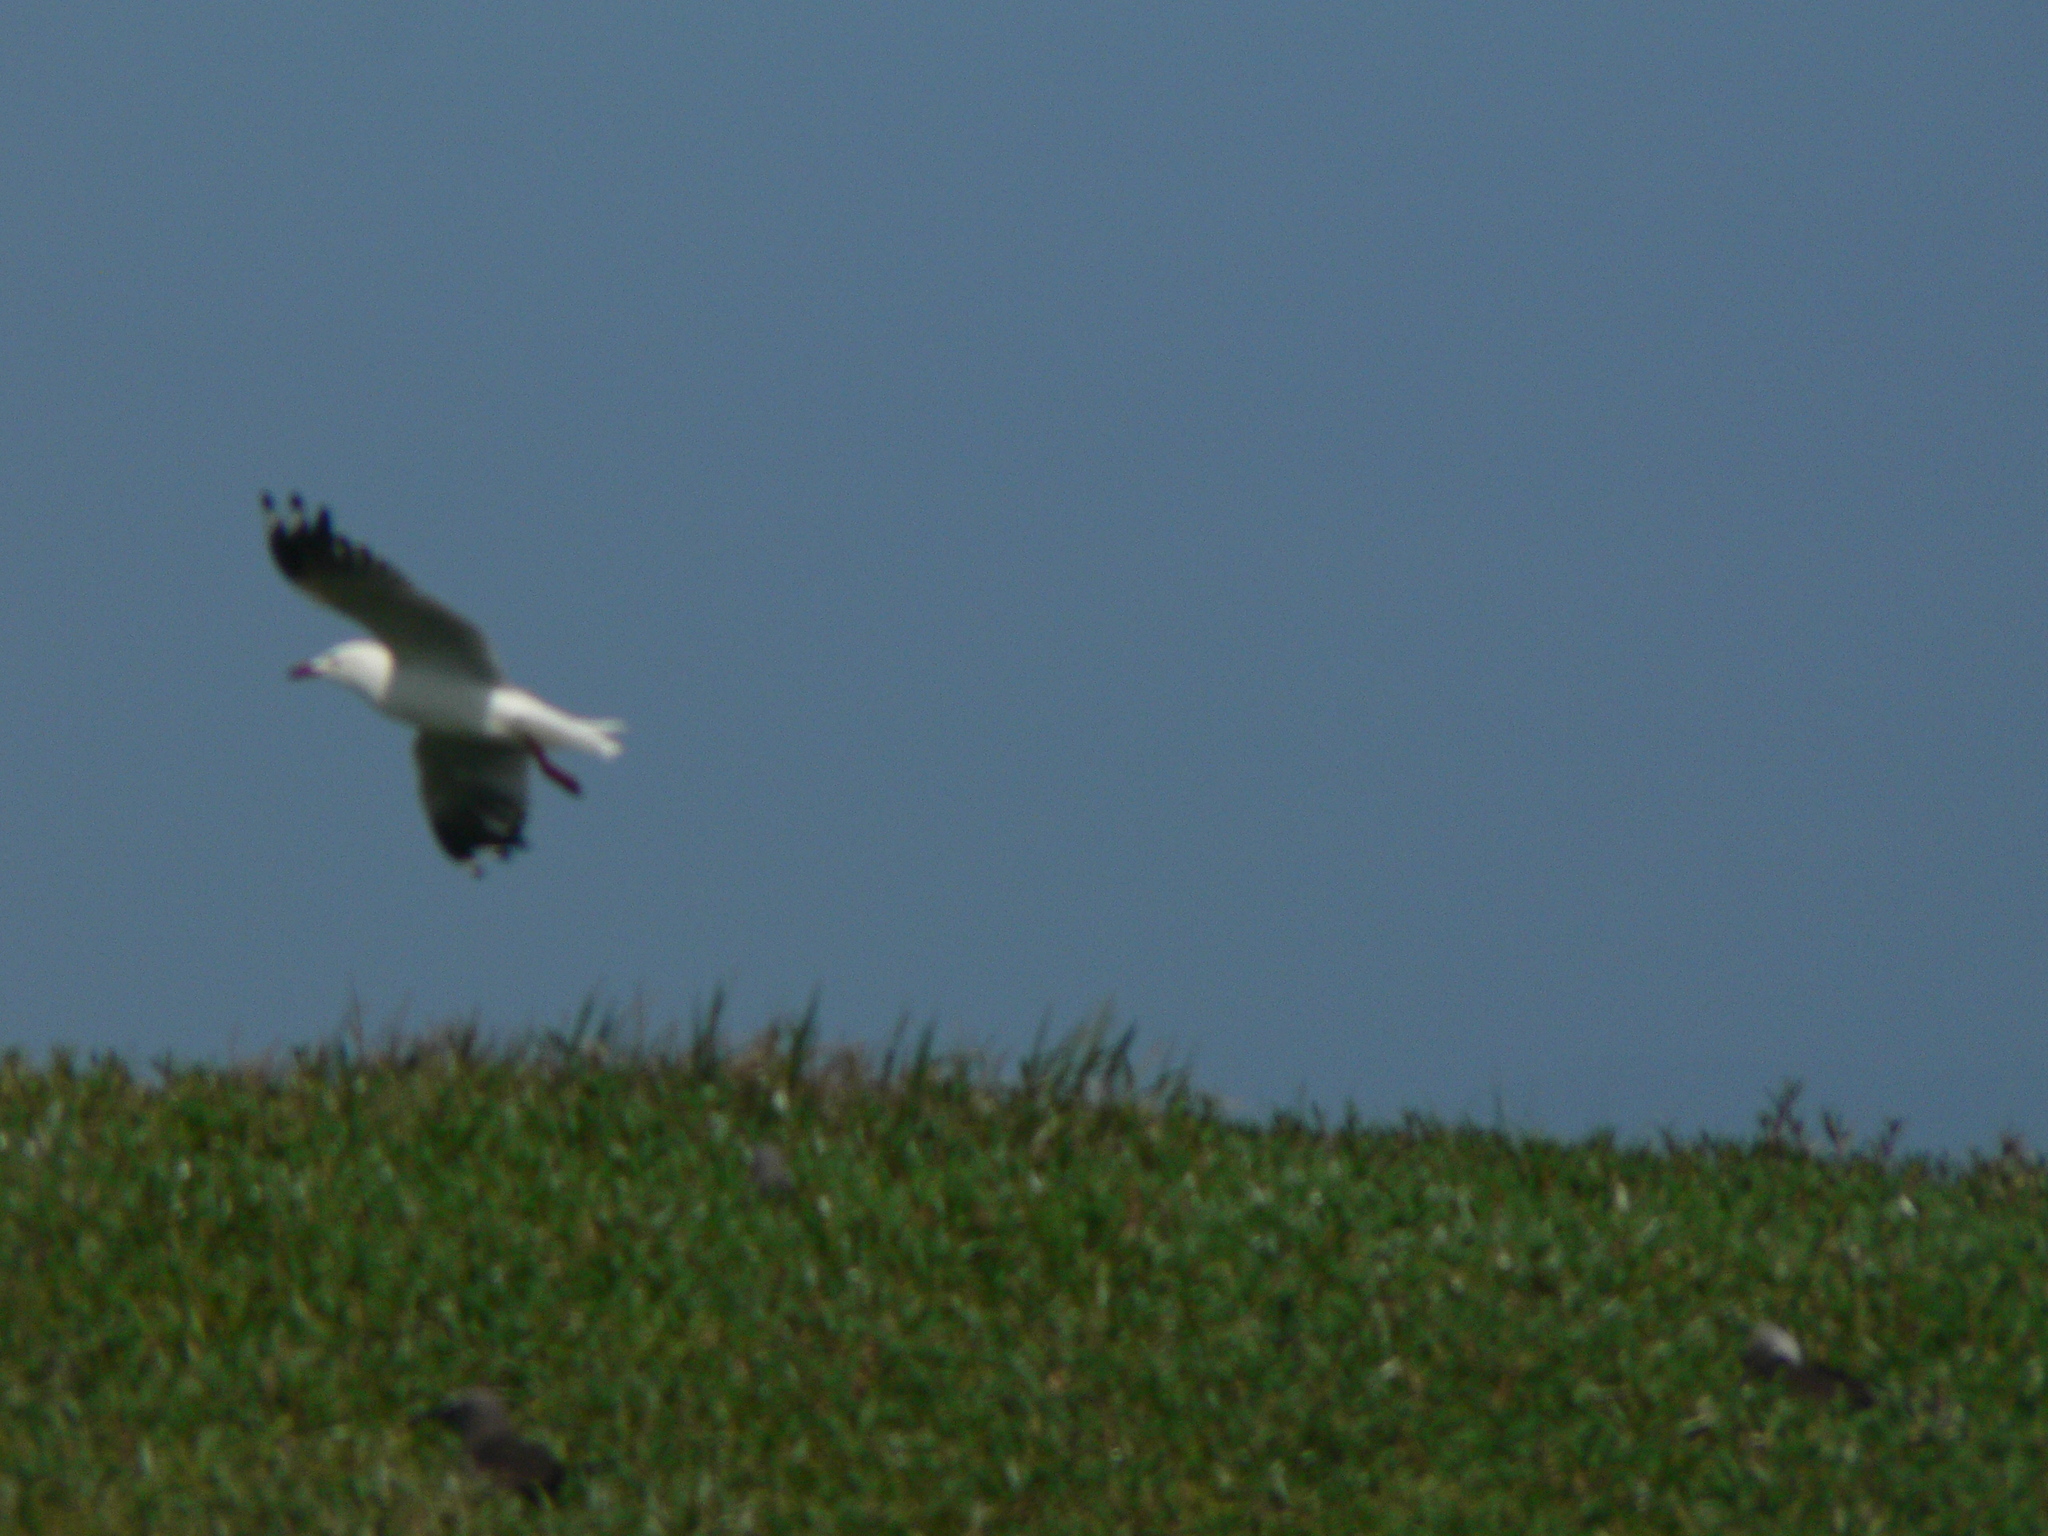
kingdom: Animalia
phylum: Chordata
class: Aves
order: Charadriiformes
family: Laridae
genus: Chroicocephalus
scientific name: Chroicocephalus novaehollandiae
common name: Silver gull
